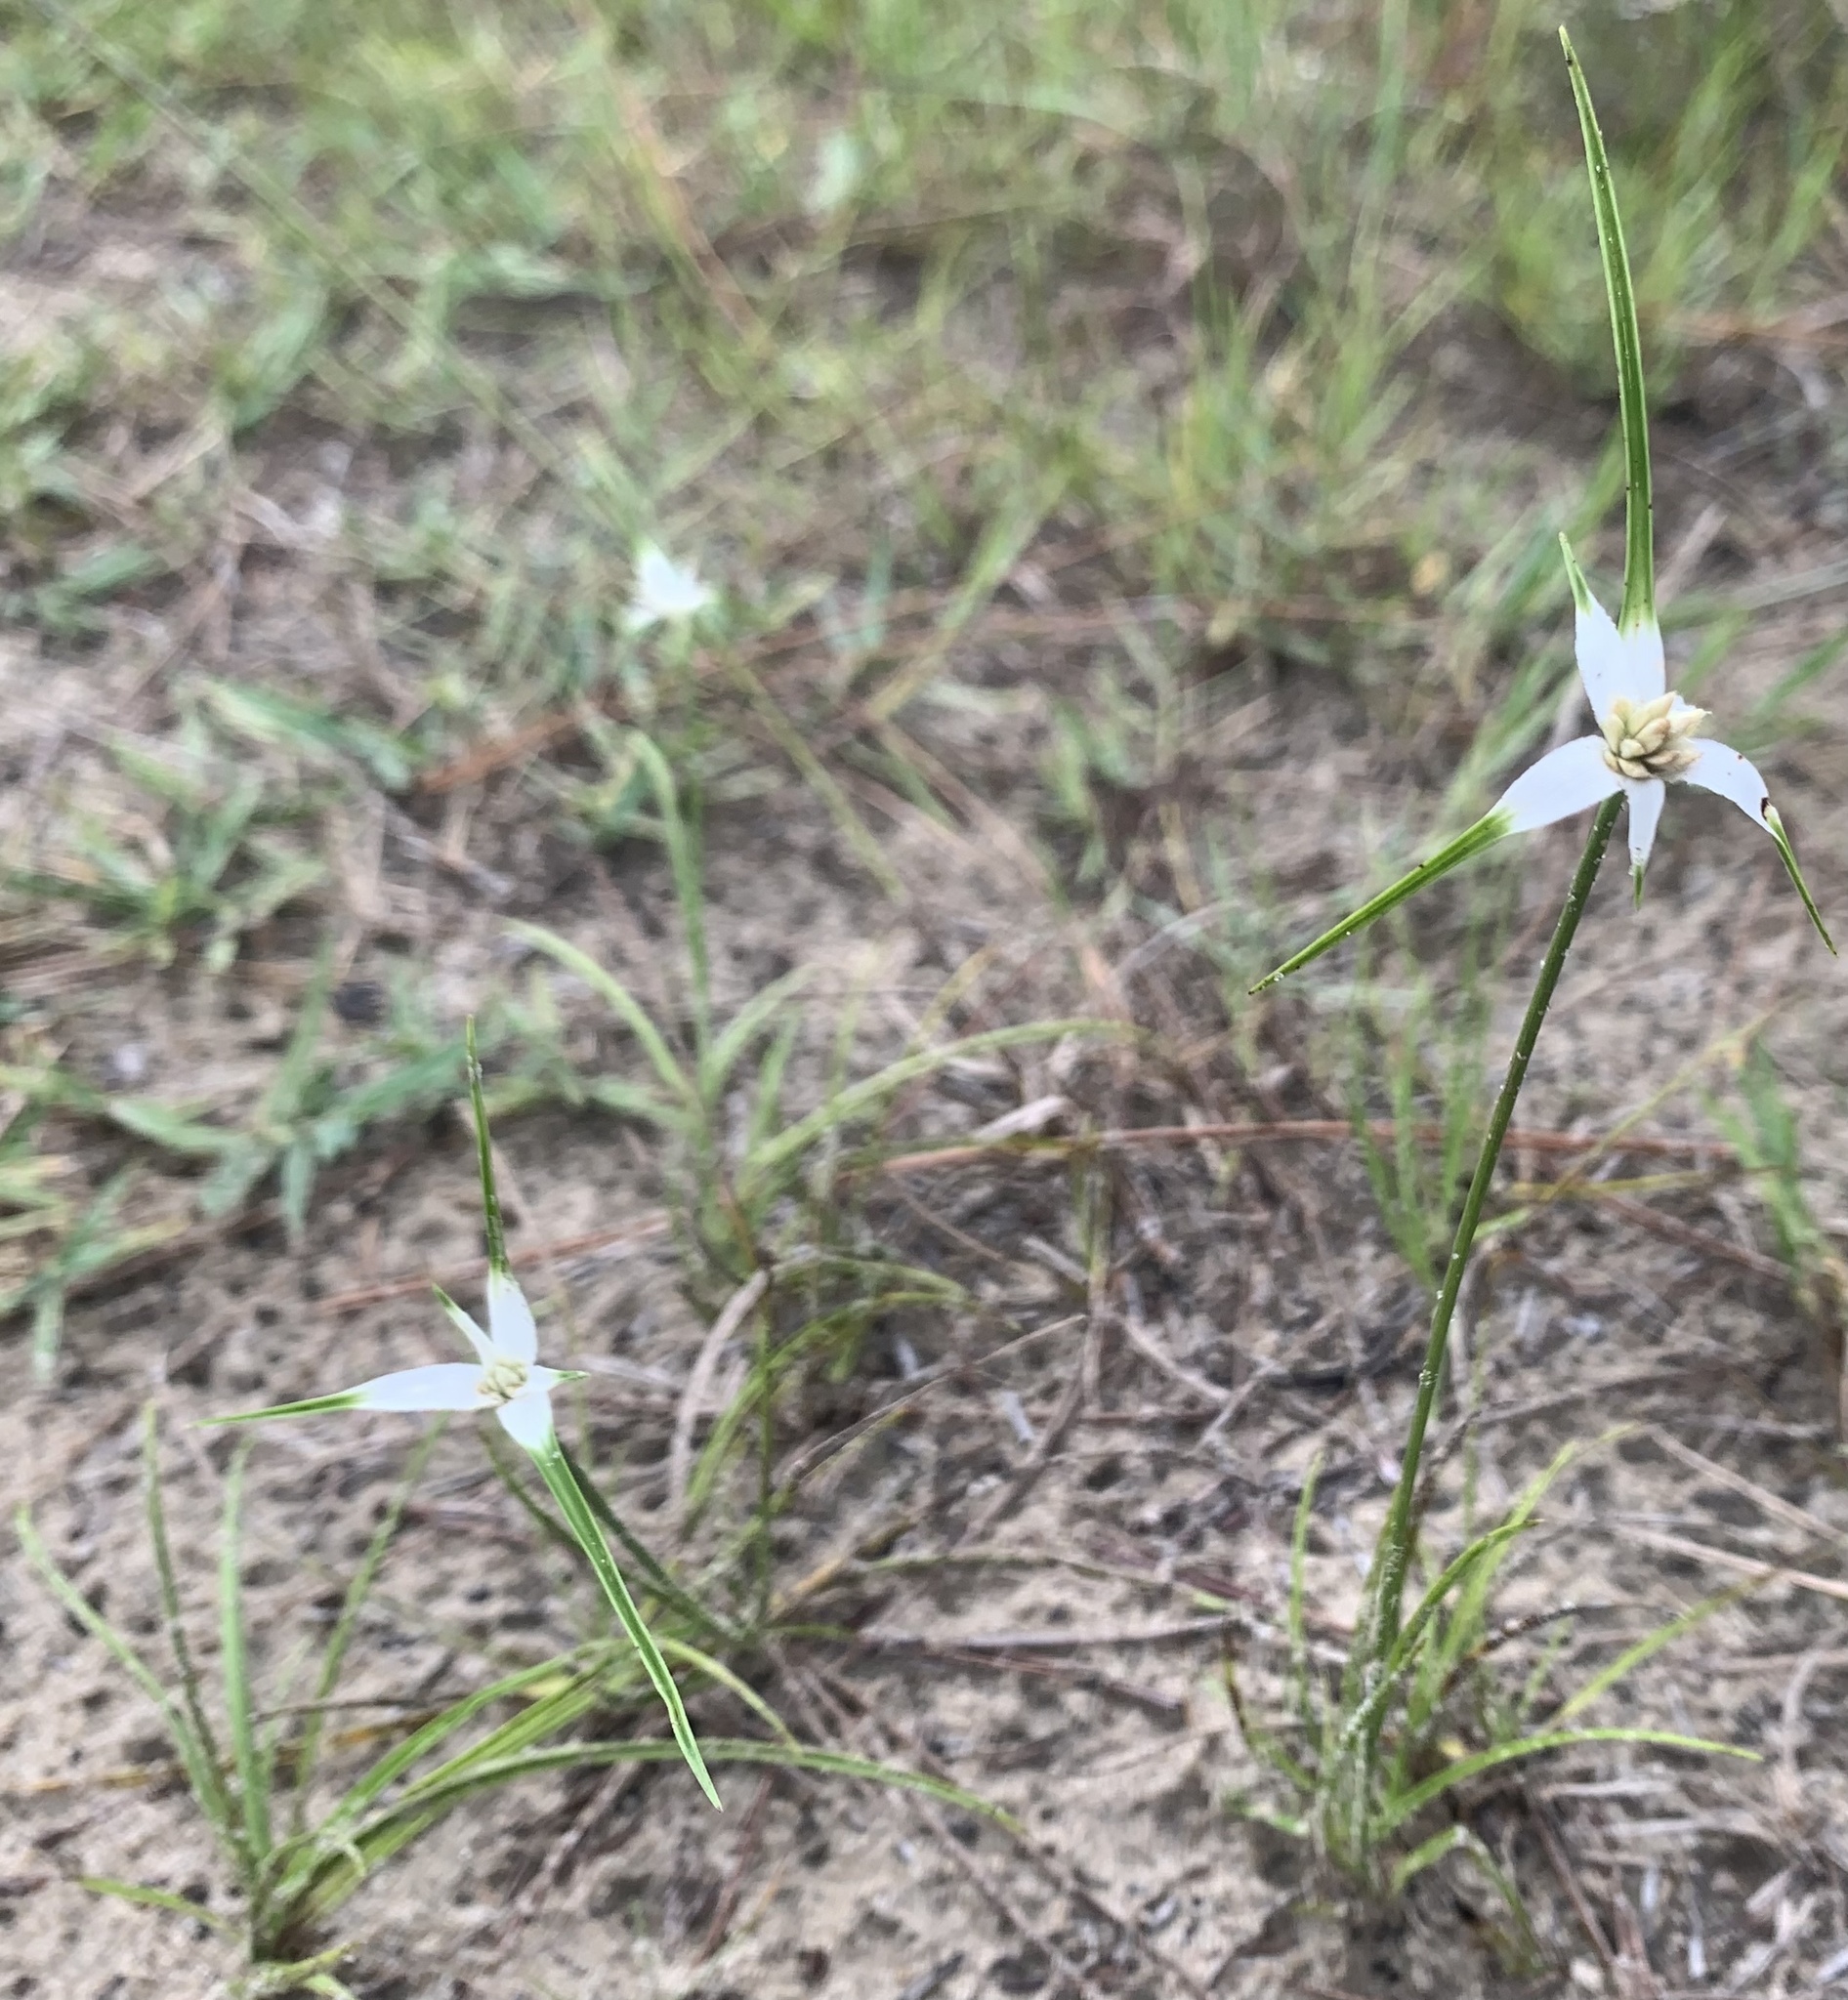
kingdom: Plantae
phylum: Tracheophyta
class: Liliopsida
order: Poales
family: Cyperaceae
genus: Rhynchospora
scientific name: Rhynchospora colorata
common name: Star sedge
